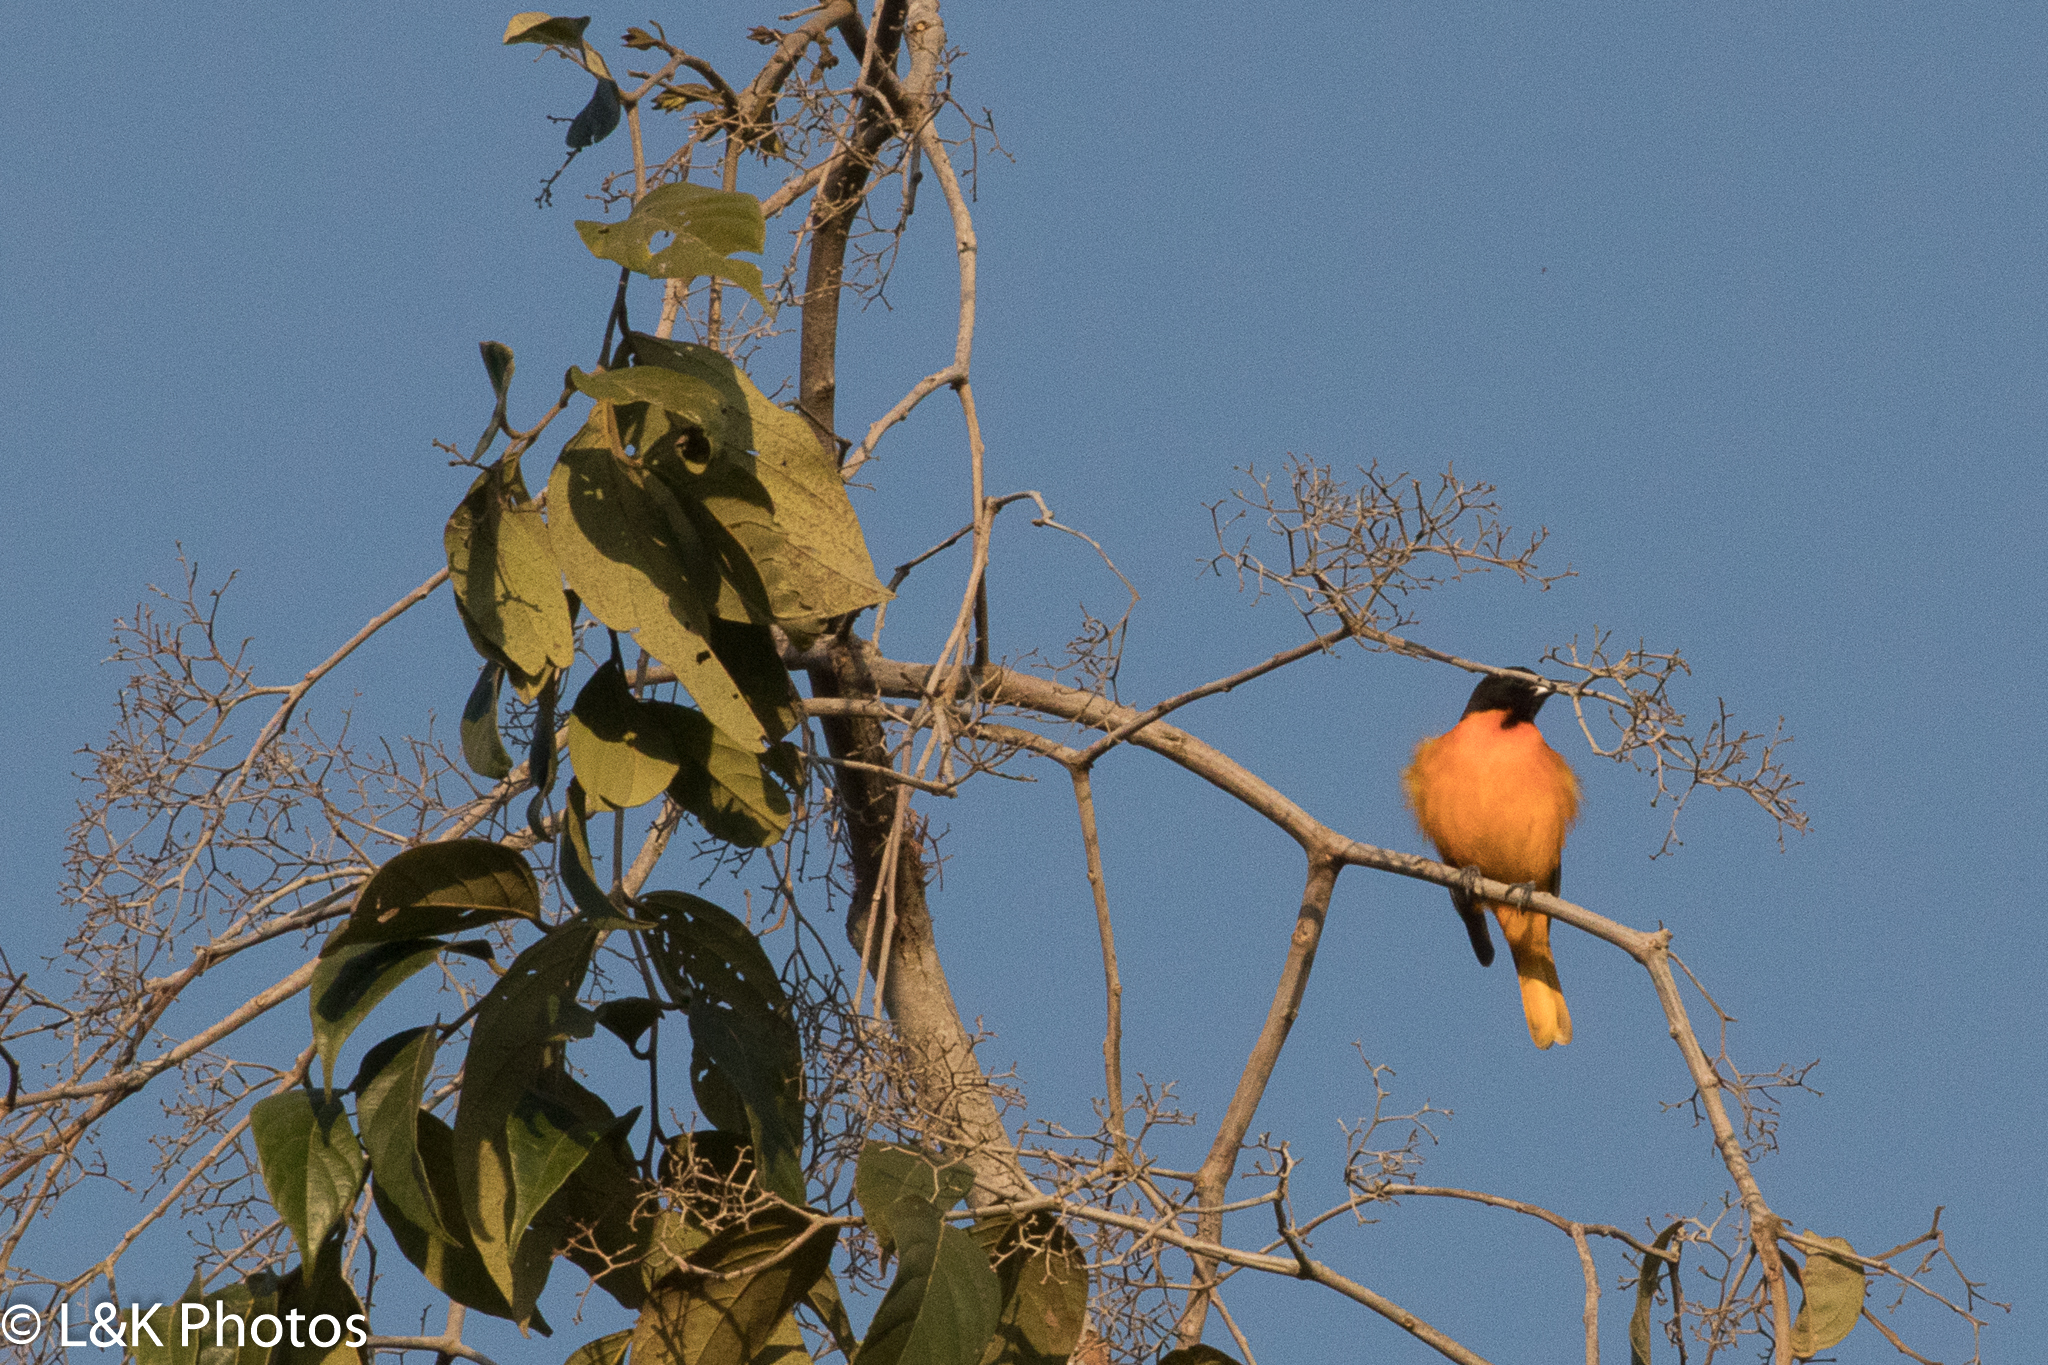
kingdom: Animalia
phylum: Chordata
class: Aves
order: Passeriformes
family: Icteridae
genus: Icterus
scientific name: Icterus galbula
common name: Baltimore oriole
